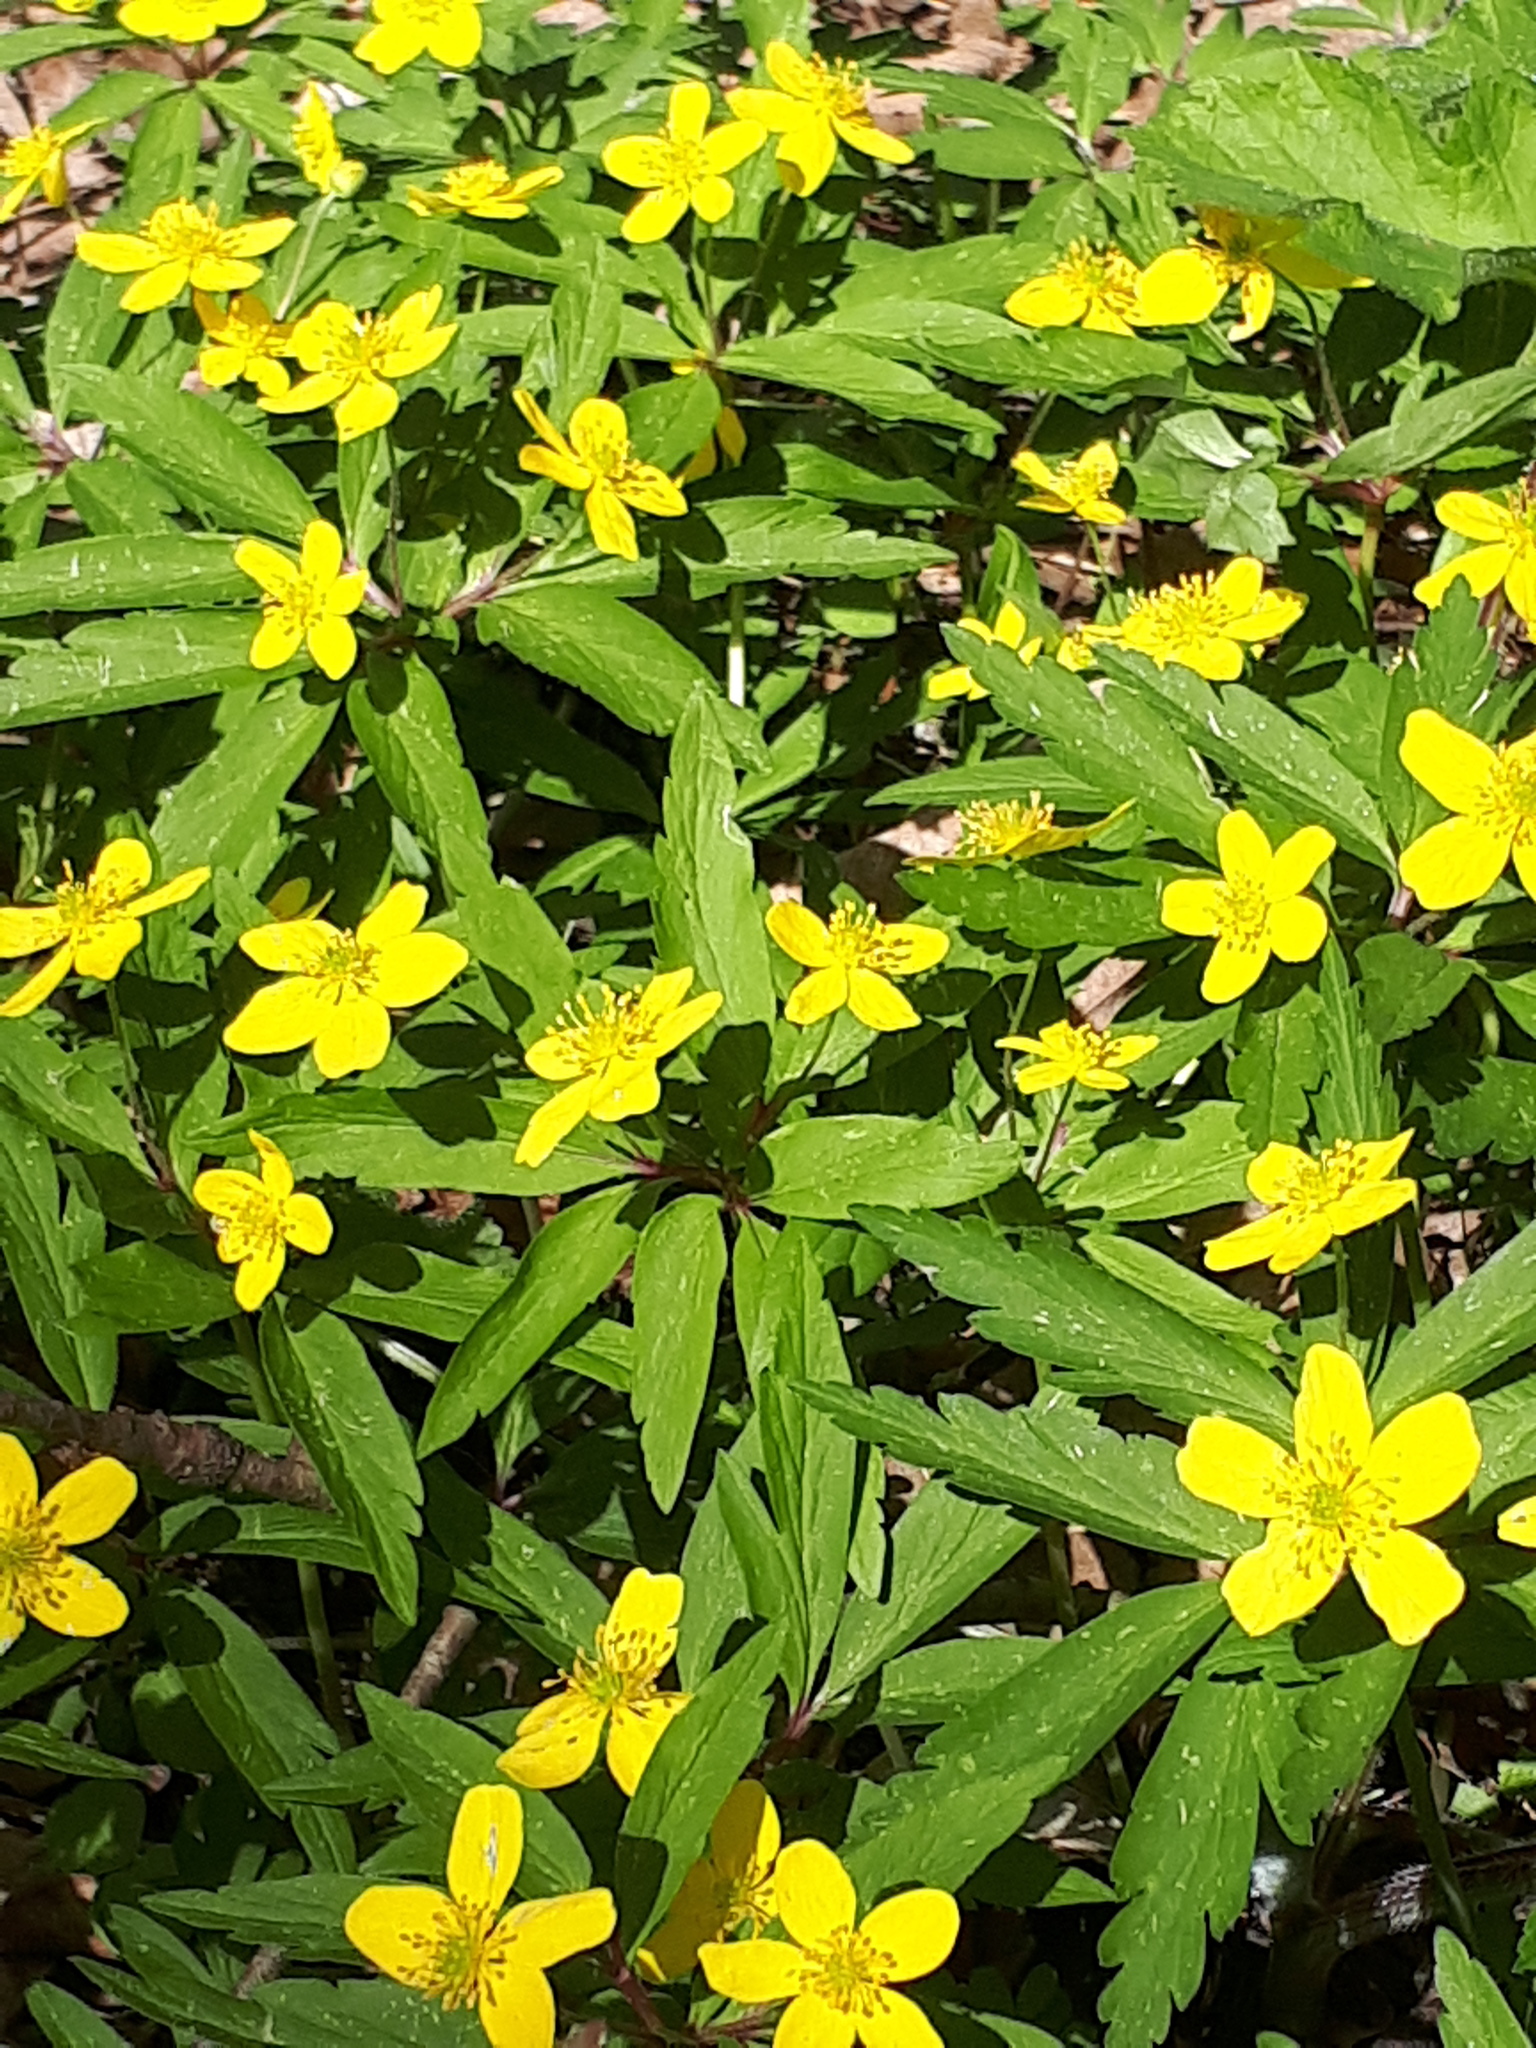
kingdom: Plantae
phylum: Tracheophyta
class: Magnoliopsida
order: Ranunculales
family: Ranunculaceae
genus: Anemone
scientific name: Anemone ranunculoides
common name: Yellow anemone
